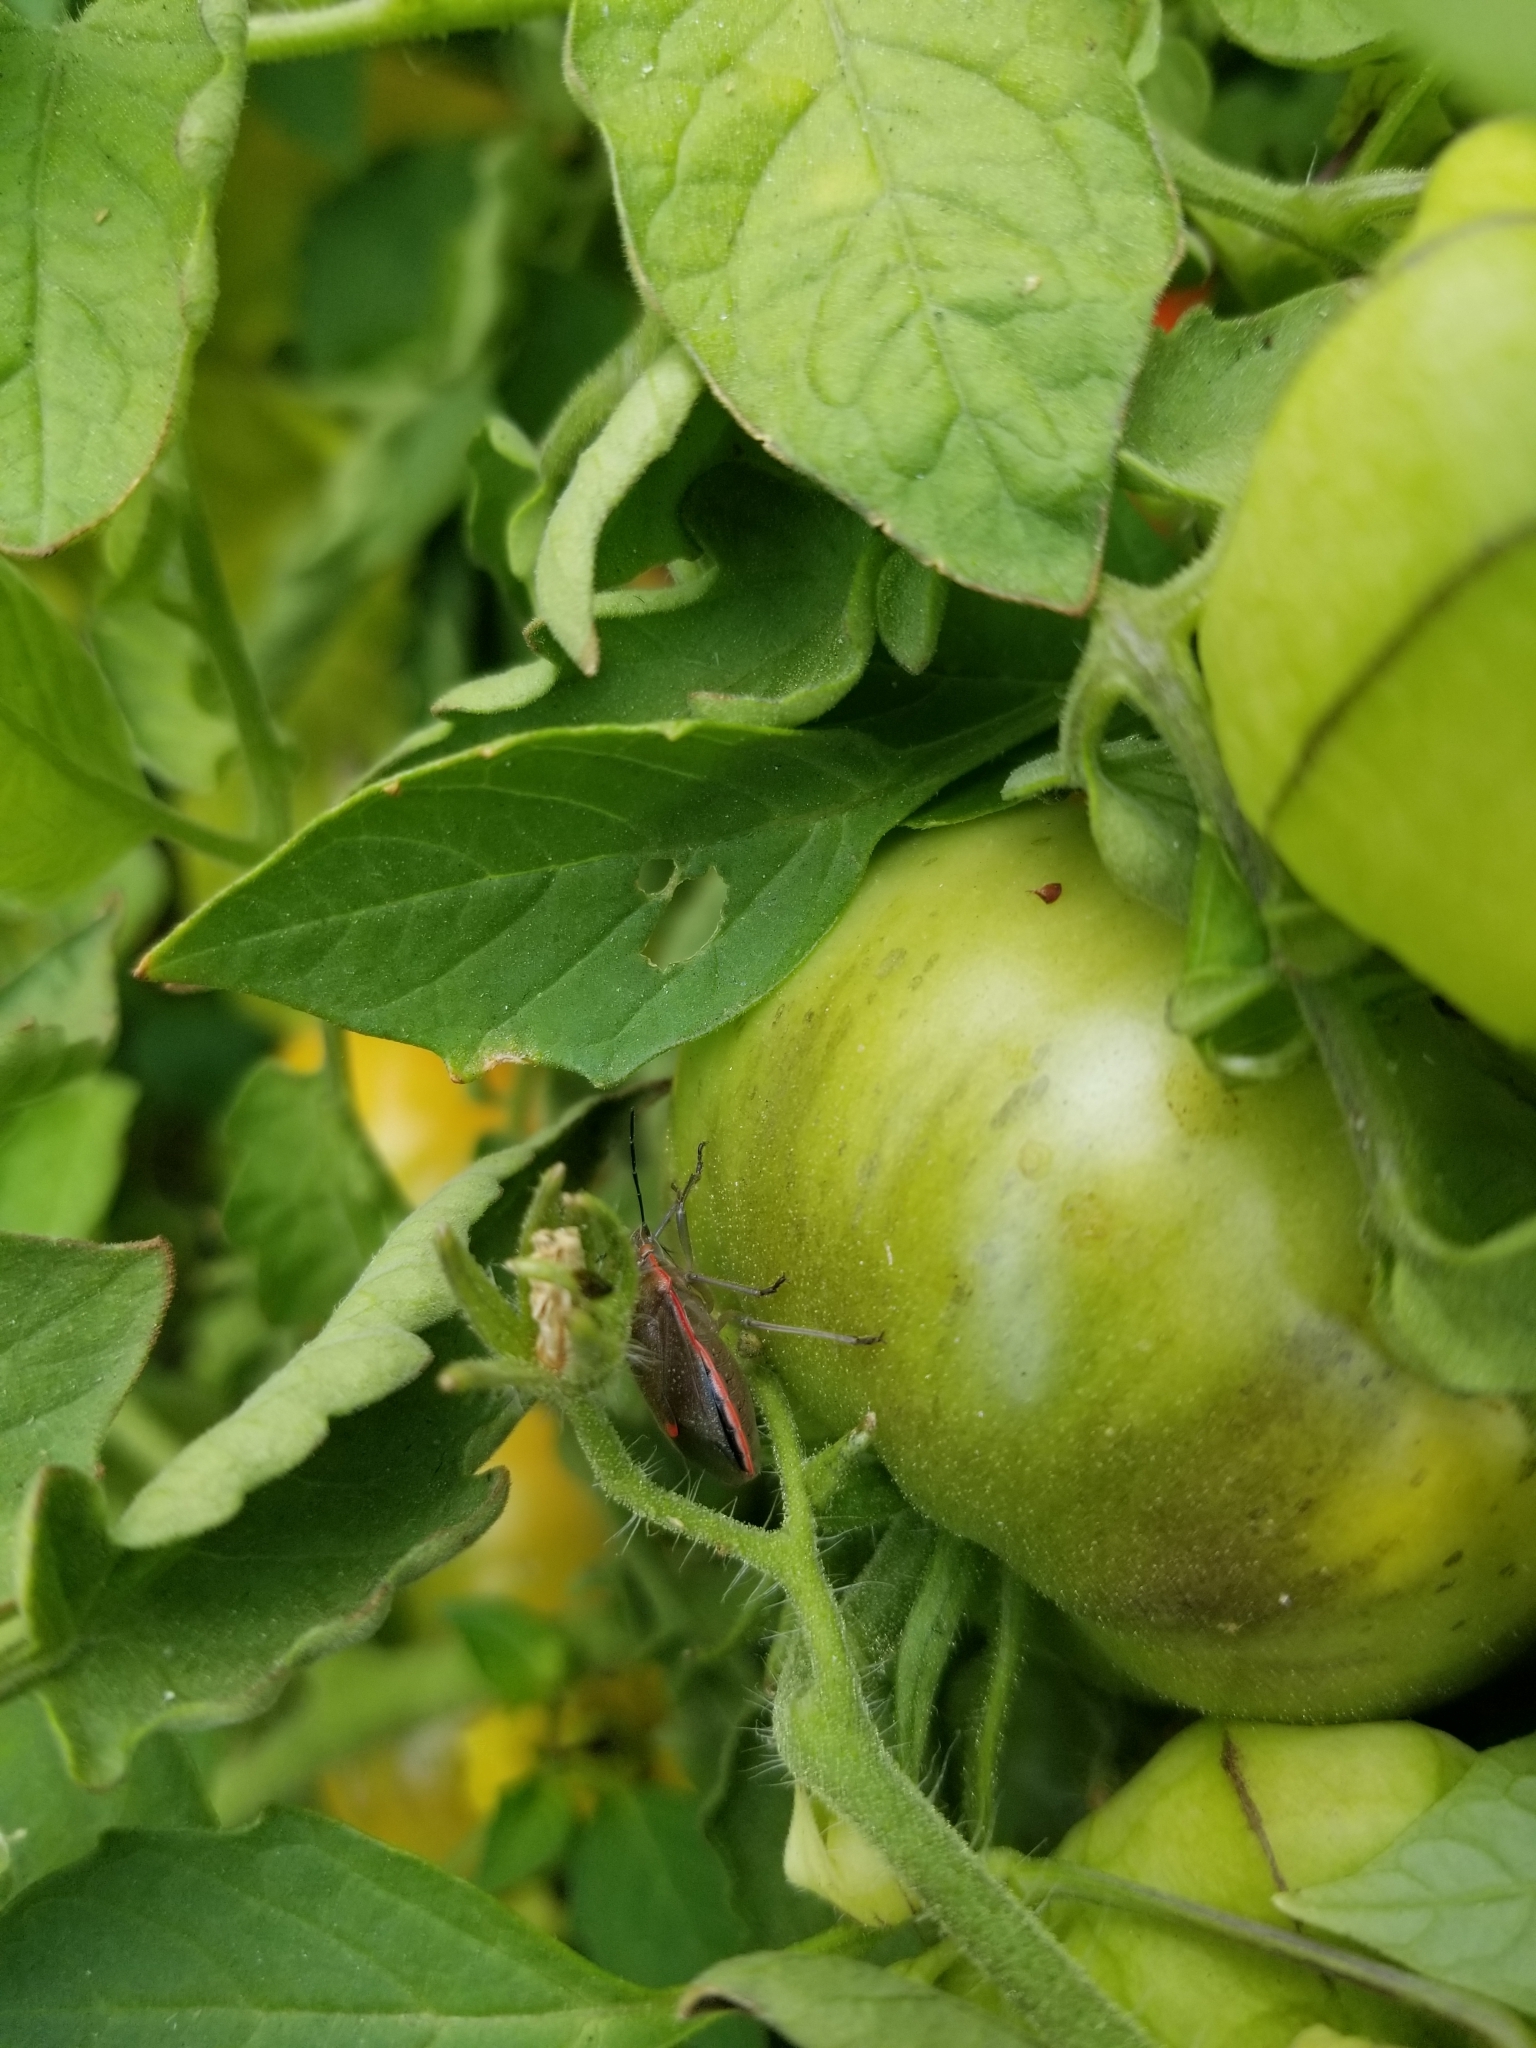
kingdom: Animalia
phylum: Arthropoda
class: Insecta
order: Hemiptera
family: Pentatomidae
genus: Chlorochroa
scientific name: Chlorochroa ligata
